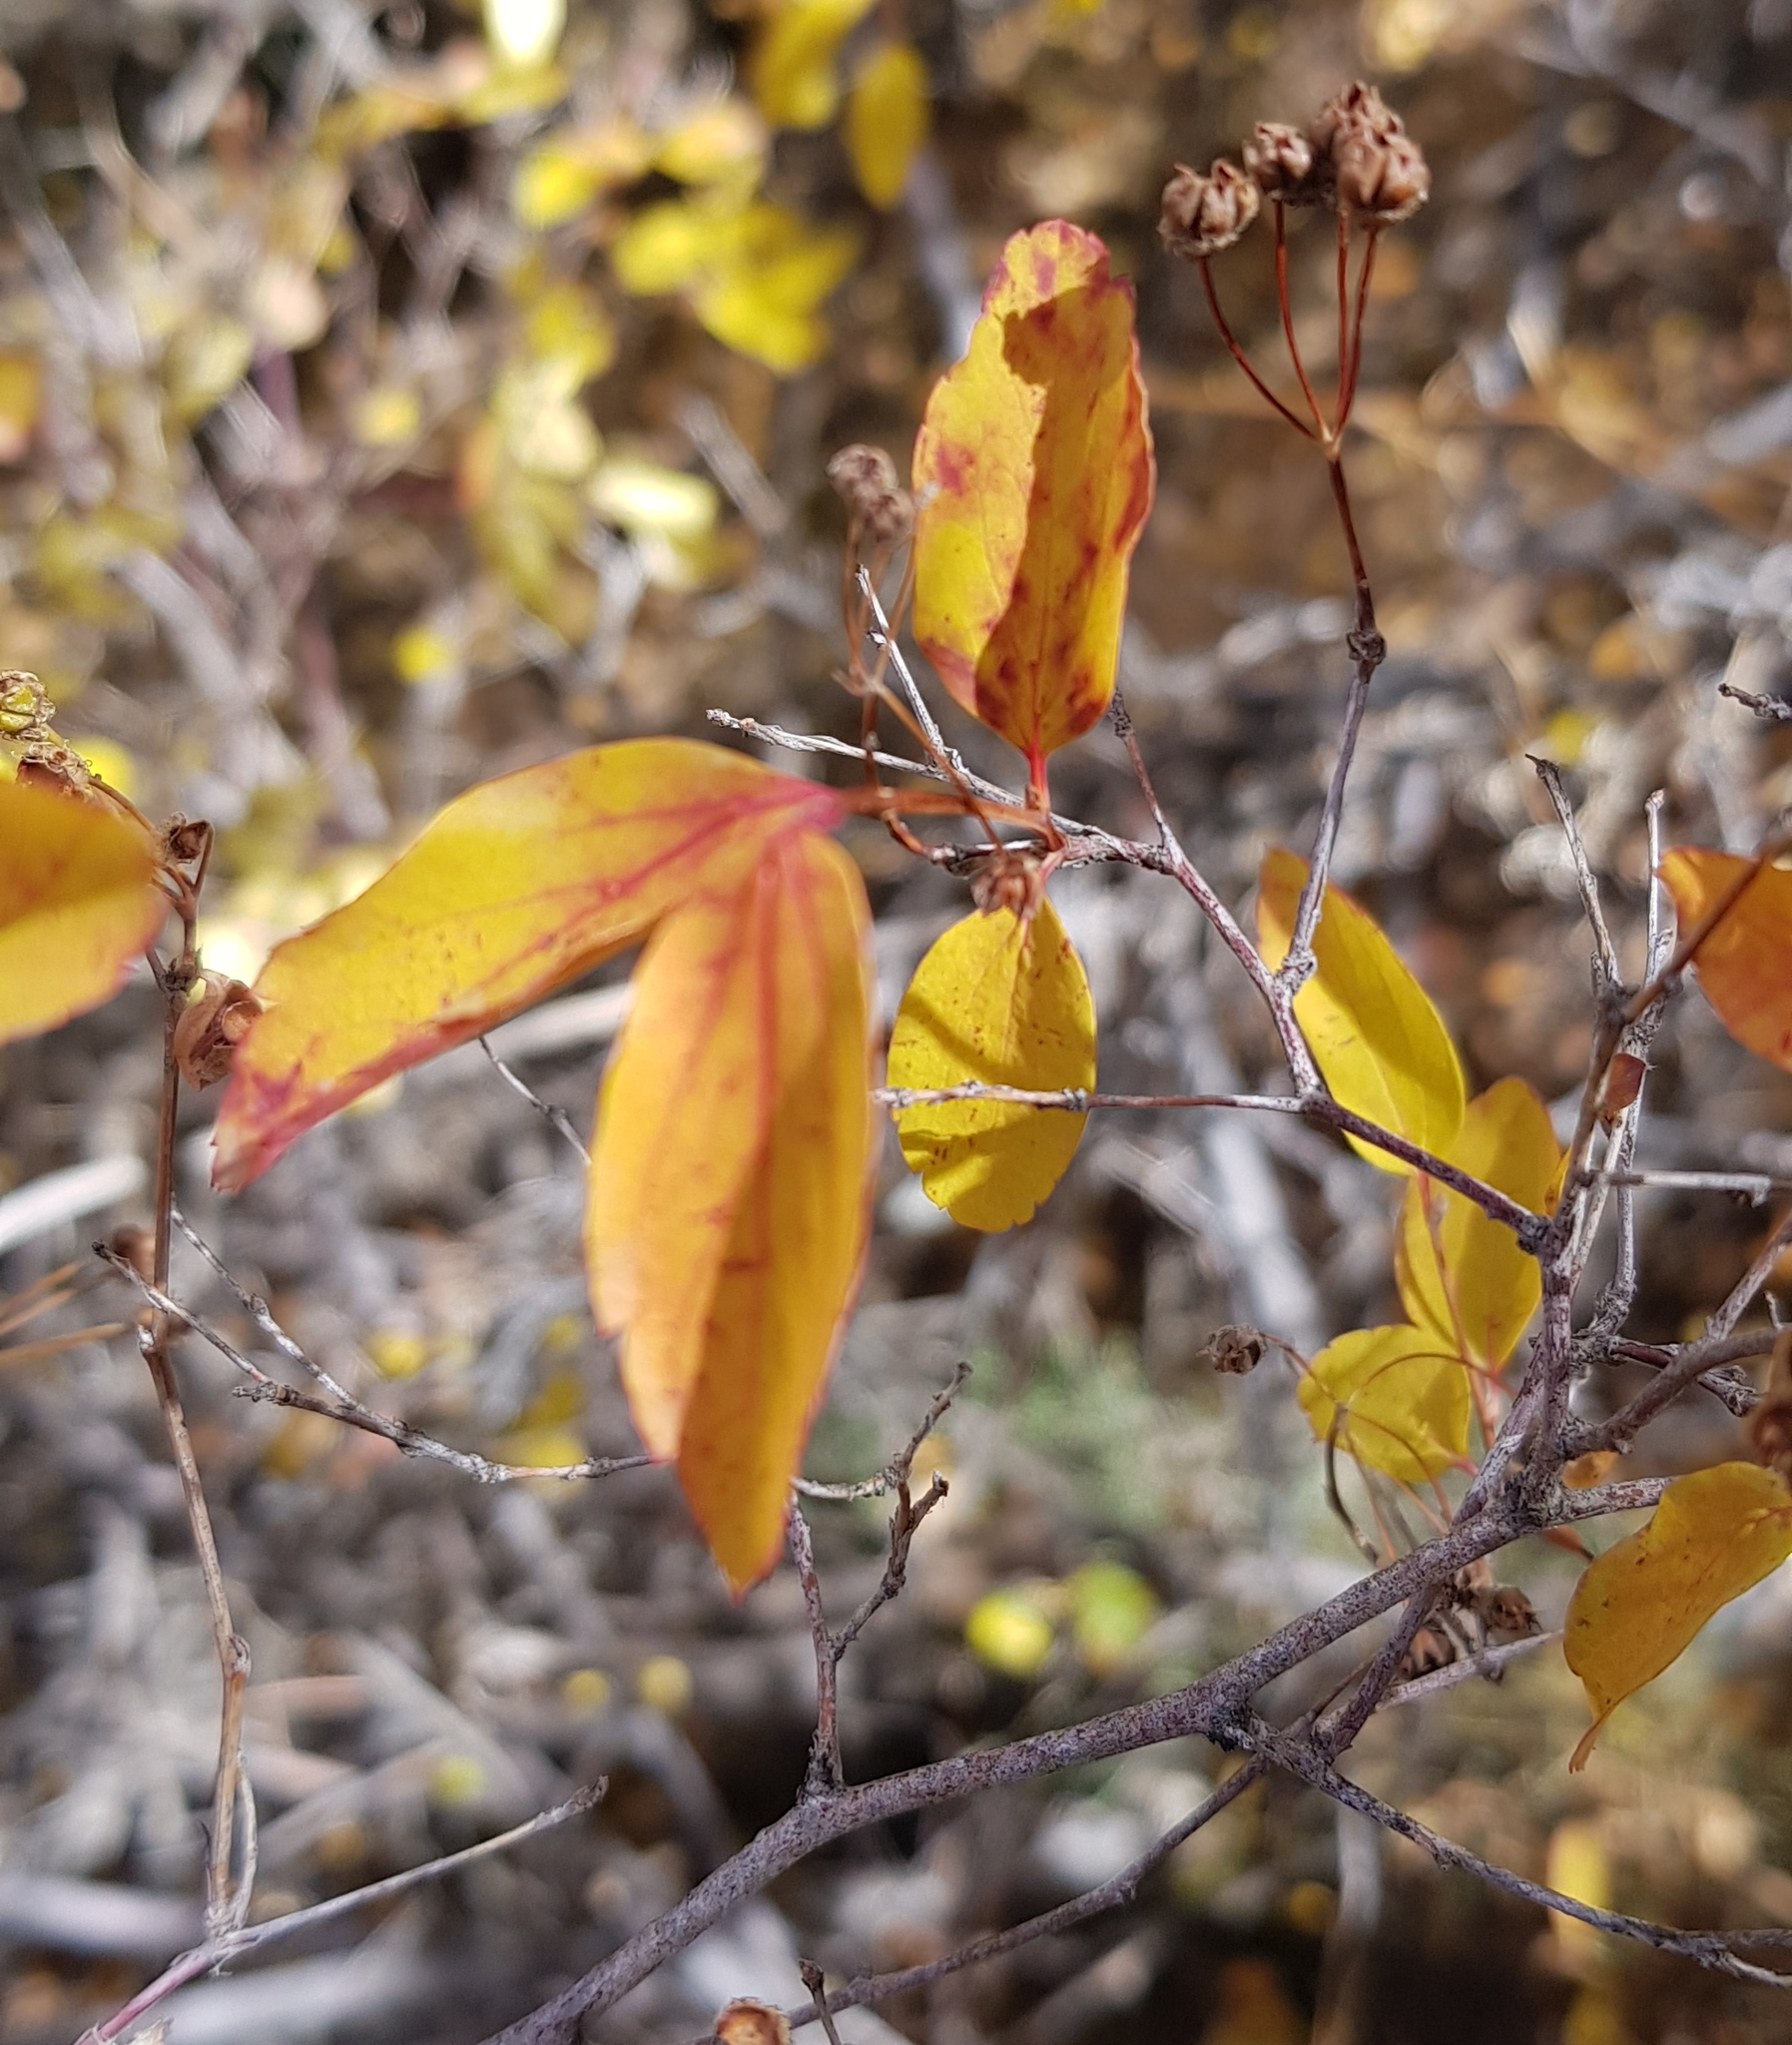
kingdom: Plantae
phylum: Tracheophyta
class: Magnoliopsida
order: Rosales
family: Rosaceae
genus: Spiraea
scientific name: Spiraea flexuosa
